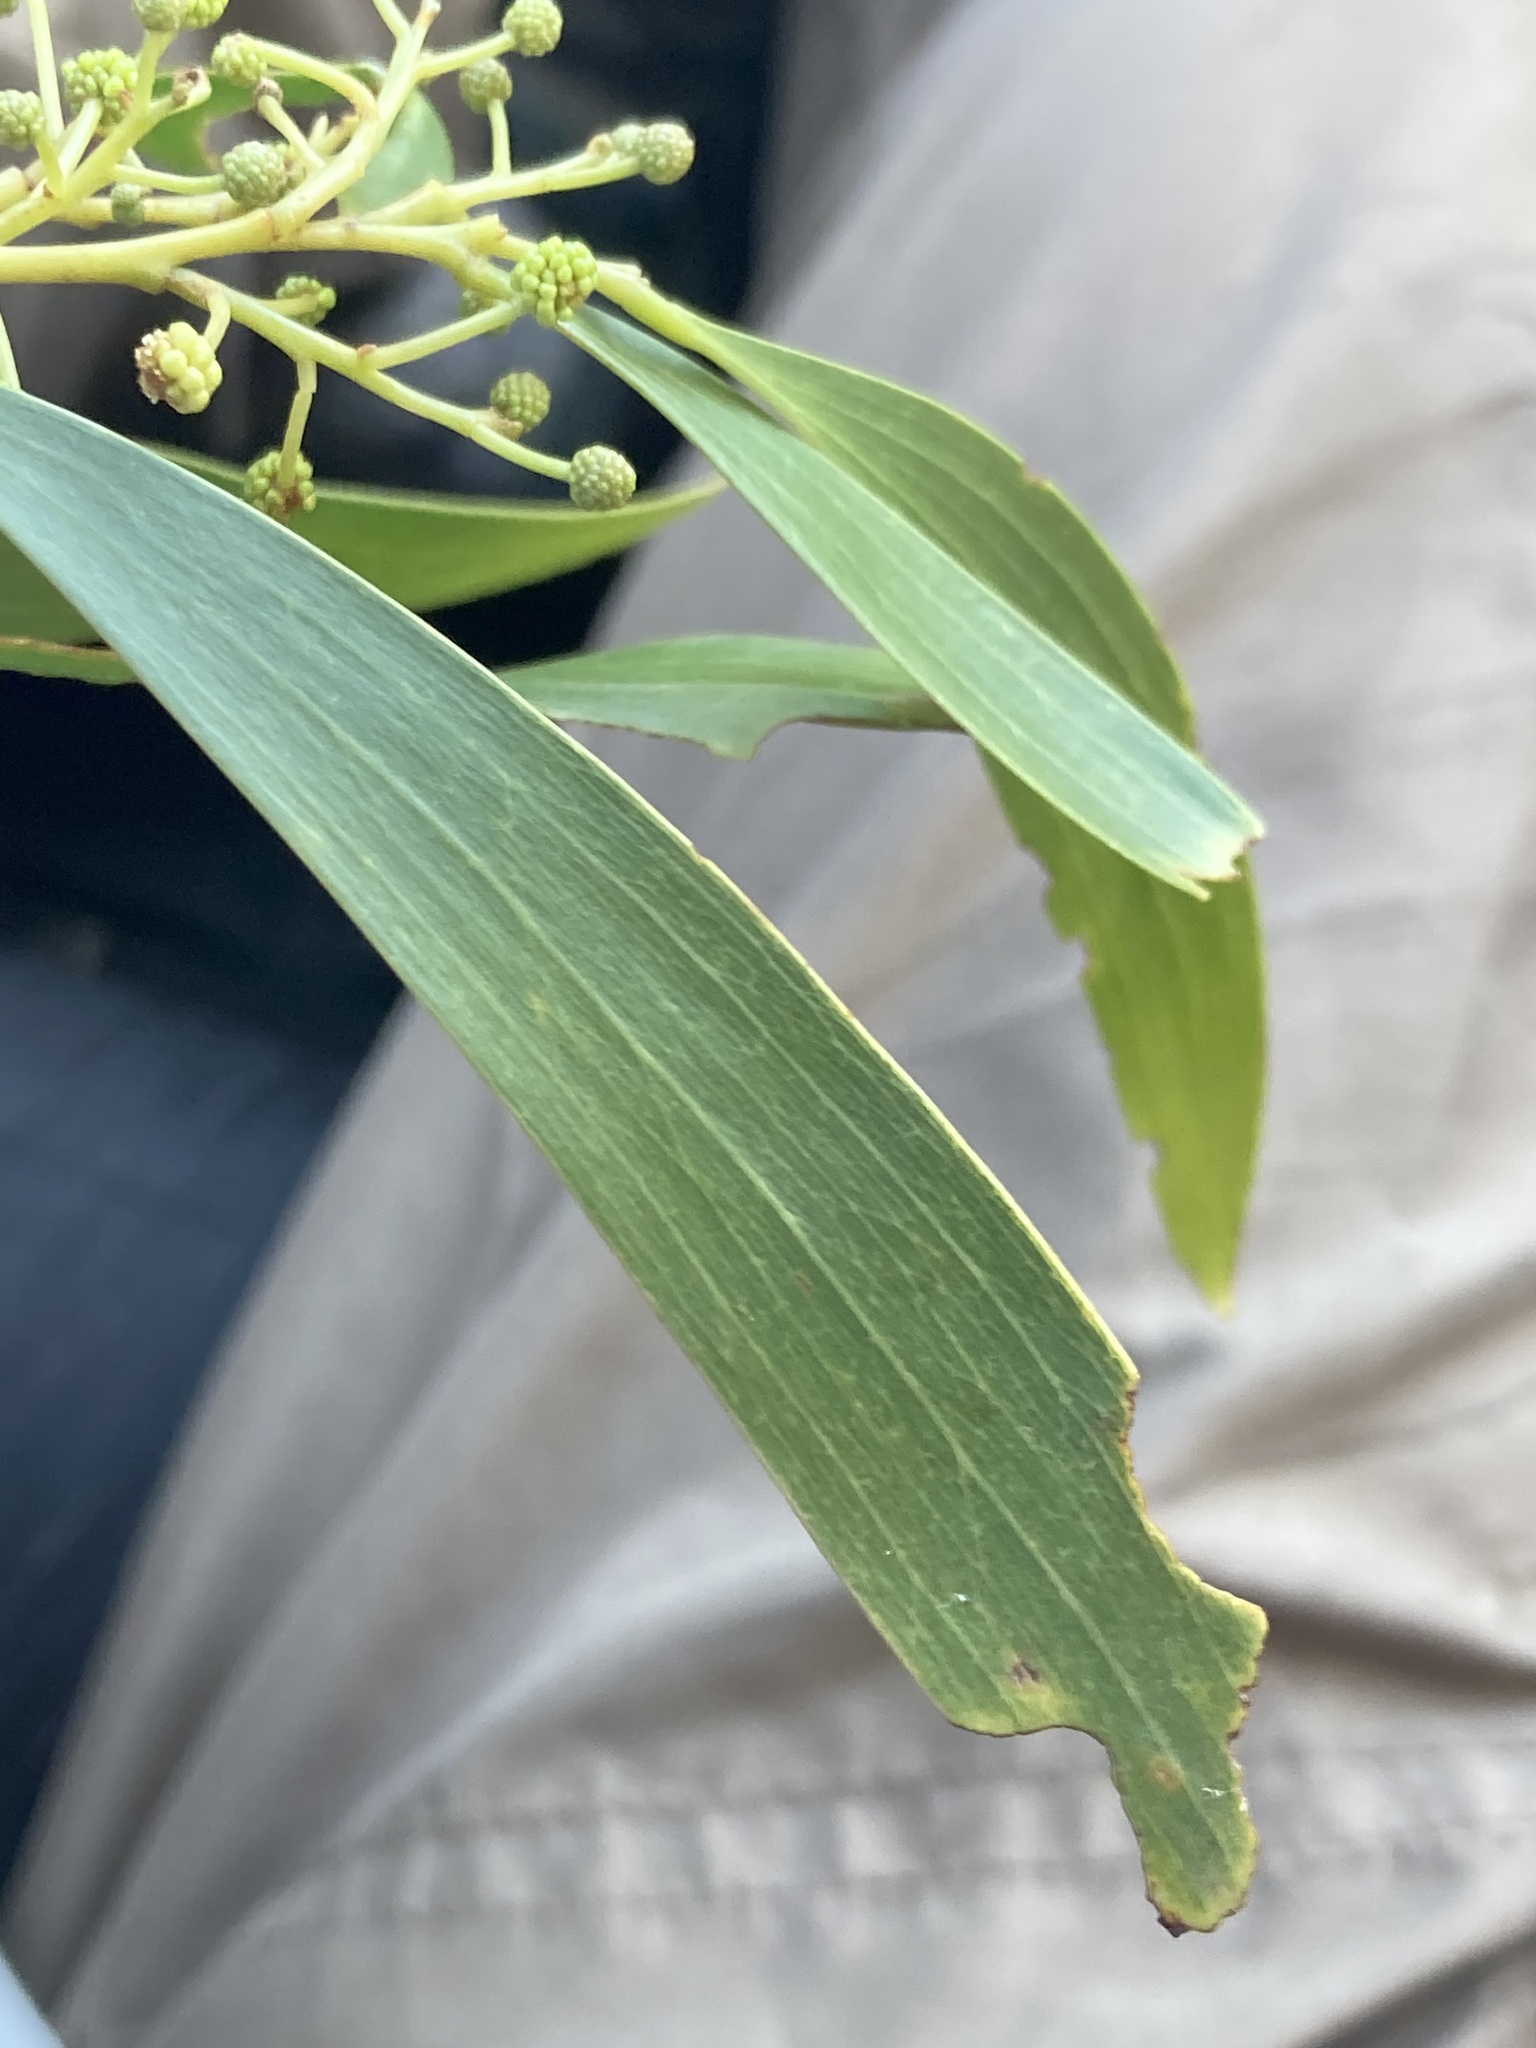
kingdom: Plantae
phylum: Tracheophyta
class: Magnoliopsida
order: Fabales
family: Fabaceae
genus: Acacia
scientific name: Acacia implexa
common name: Black wattle
